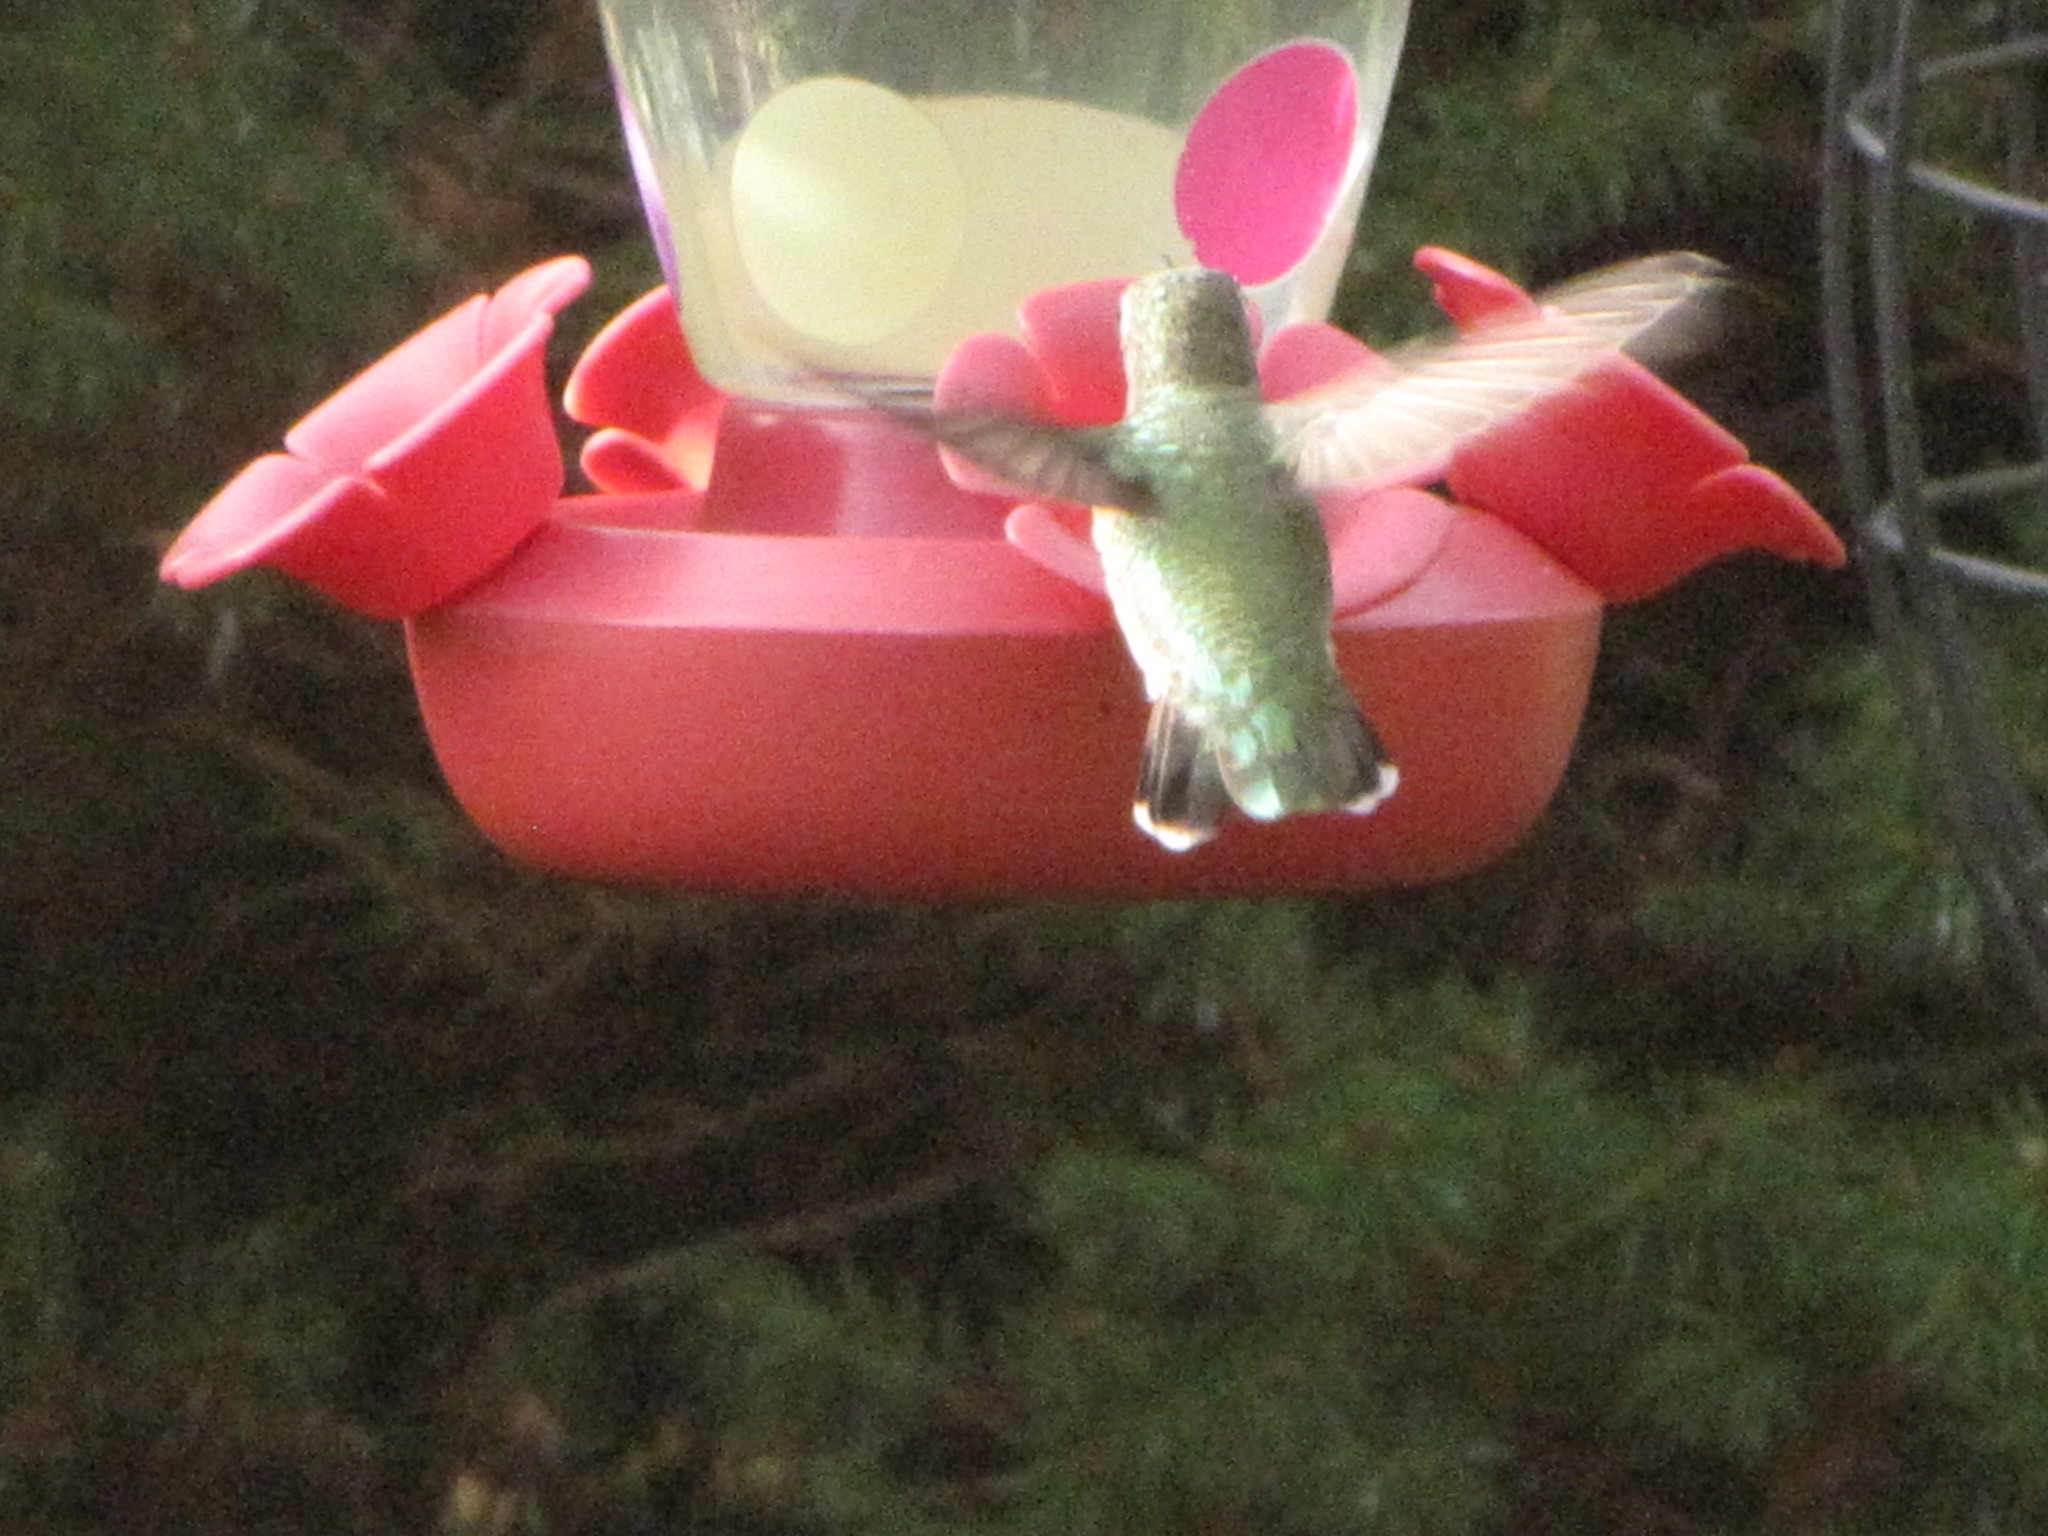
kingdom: Animalia
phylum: Chordata
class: Aves
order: Apodiformes
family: Trochilidae
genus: Calypte
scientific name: Calypte anna
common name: Anna's hummingbird
